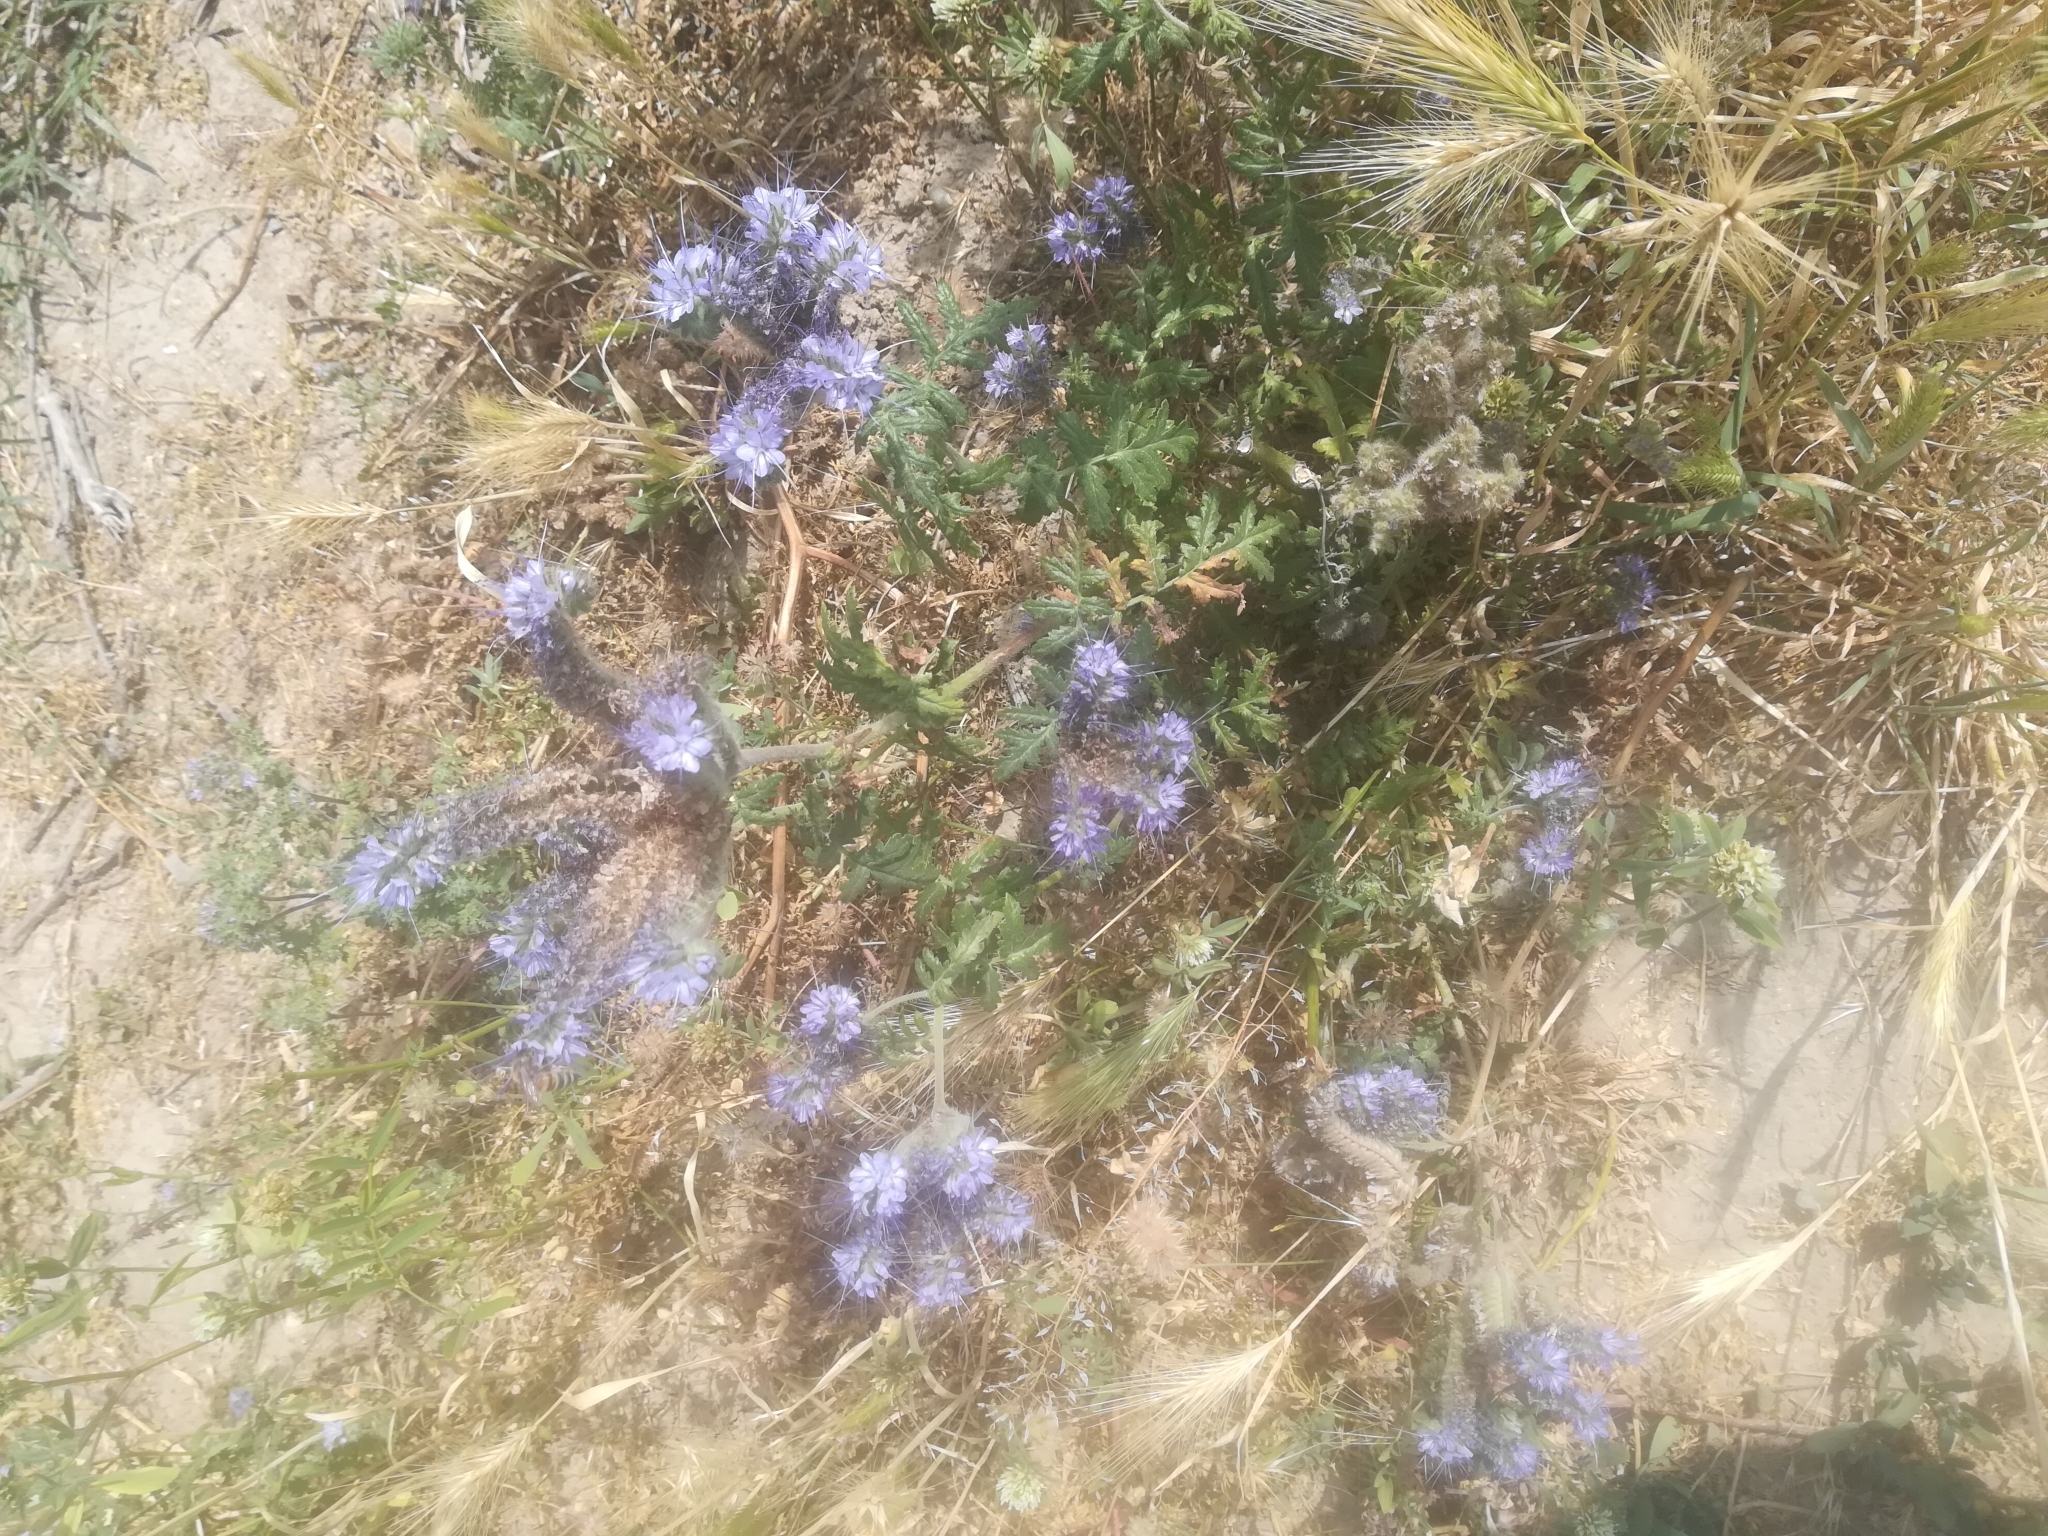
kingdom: Plantae
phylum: Tracheophyta
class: Magnoliopsida
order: Boraginales
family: Hydrophyllaceae
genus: Phacelia
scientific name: Phacelia tanacetifolia
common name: Phacelia
